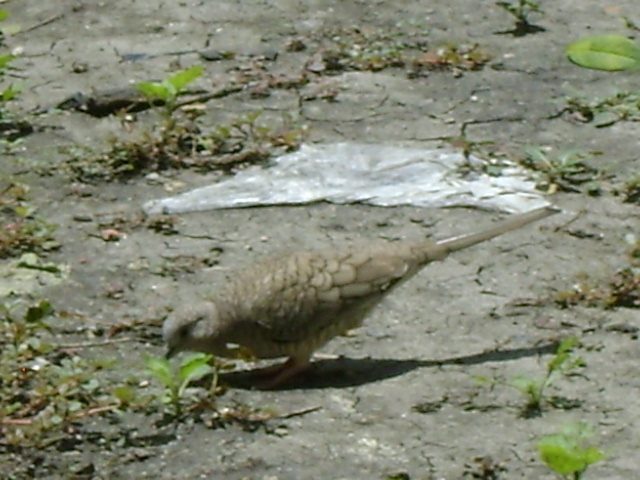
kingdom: Animalia
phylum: Chordata
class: Aves
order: Columbiformes
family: Columbidae
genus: Columbina
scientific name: Columbina inca
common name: Inca dove
